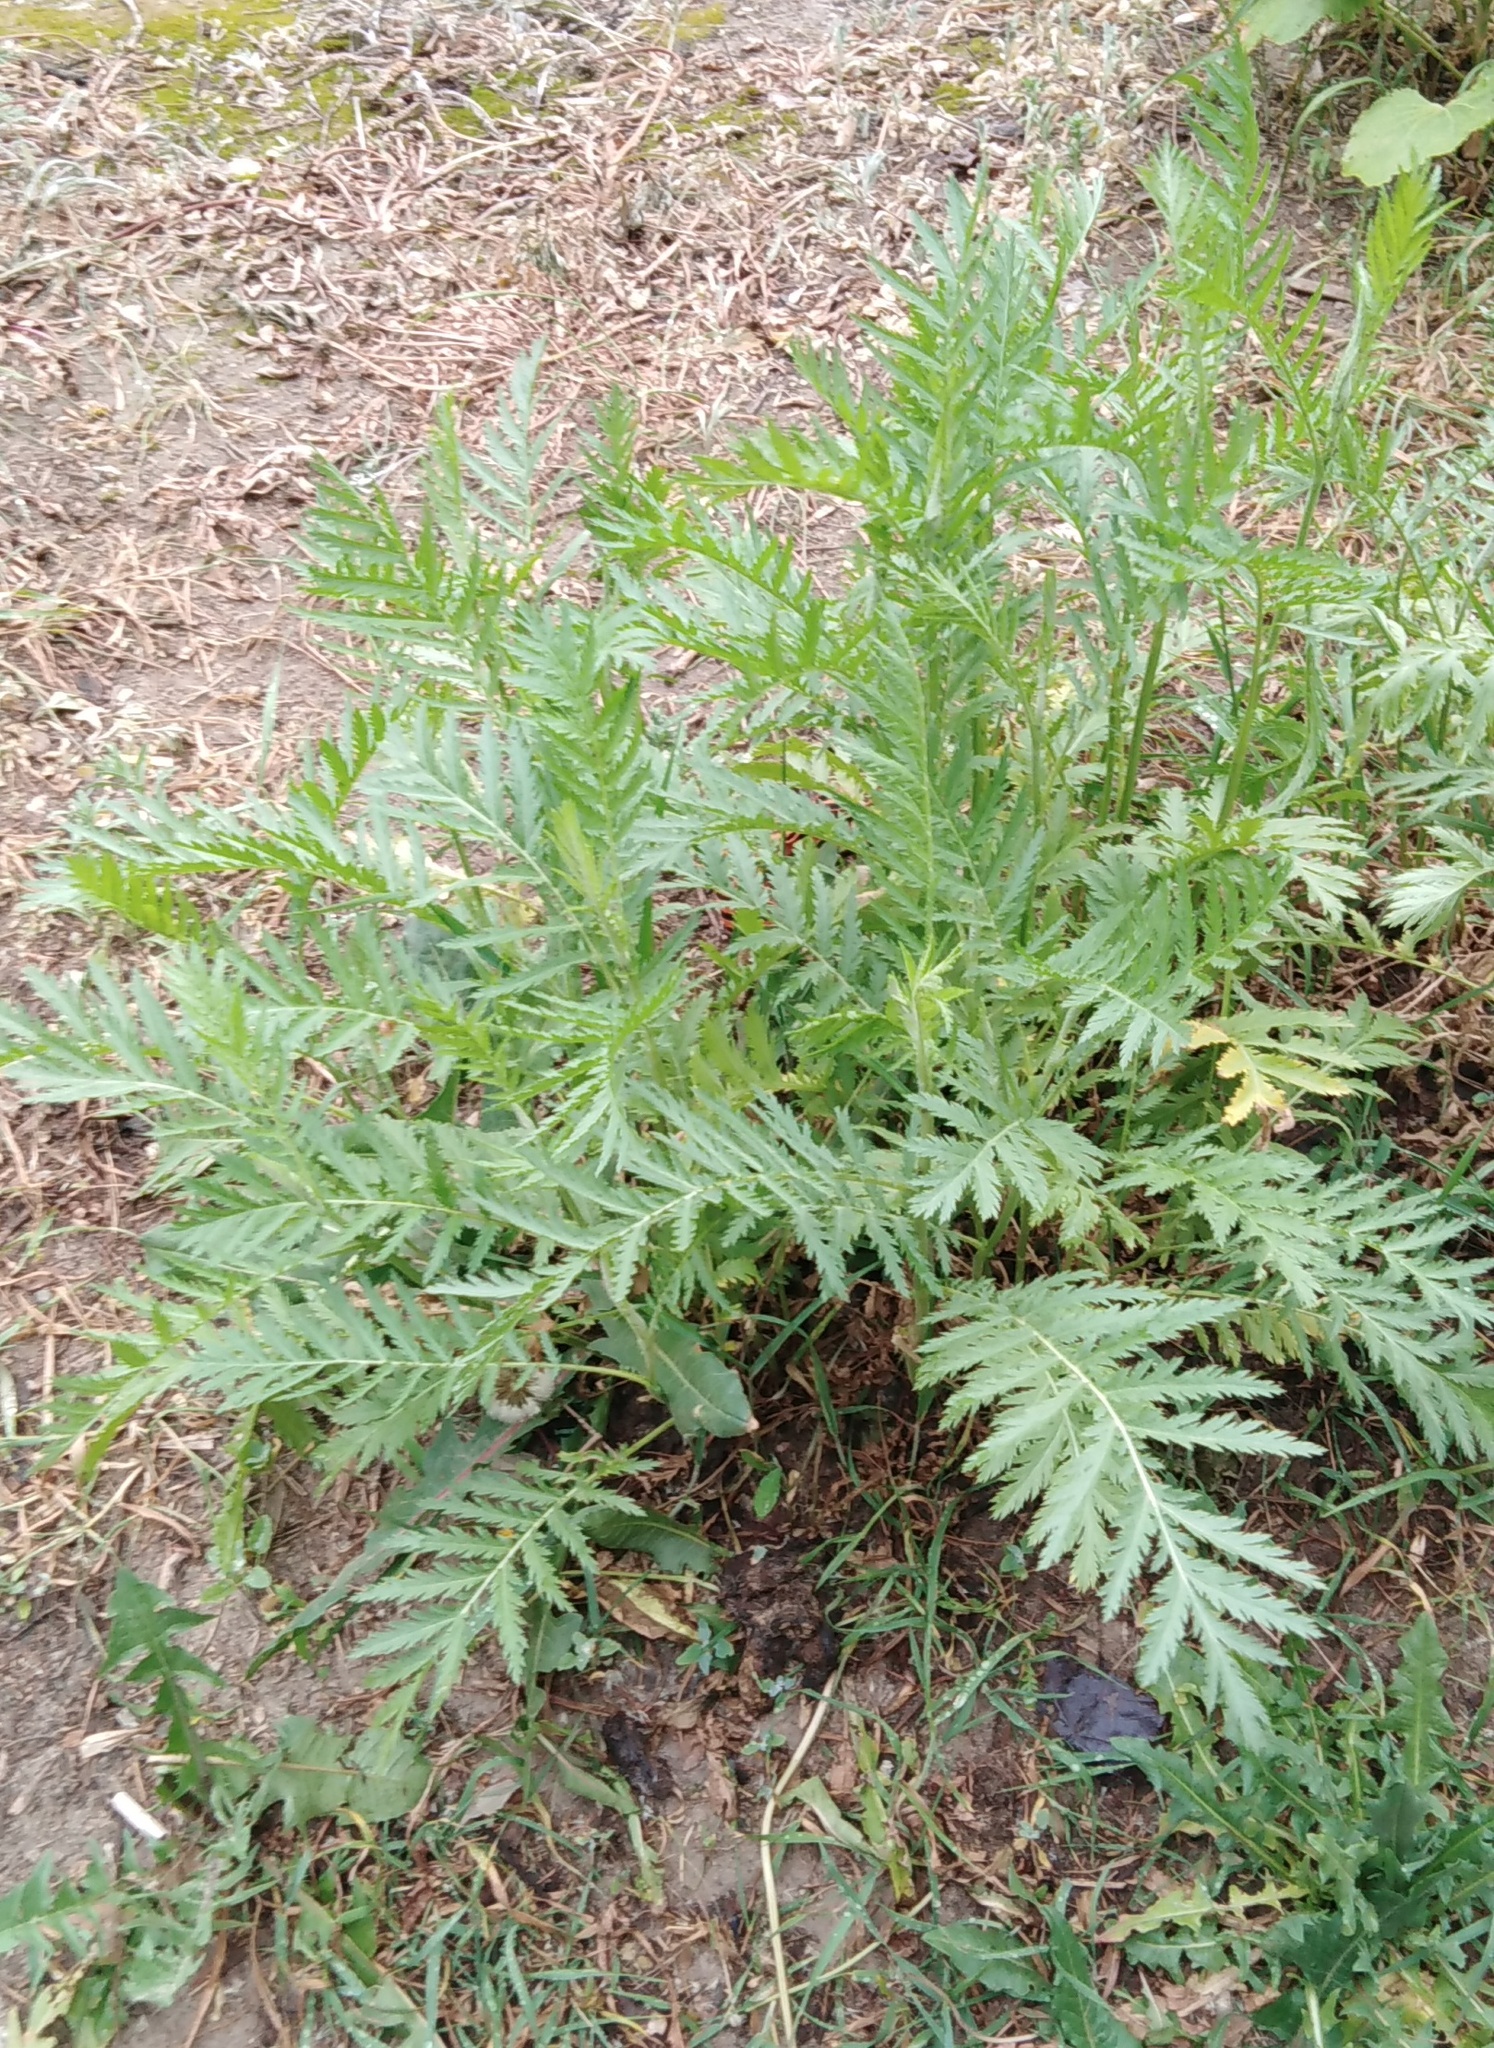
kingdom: Plantae
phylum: Tracheophyta
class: Magnoliopsida
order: Asterales
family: Asteraceae
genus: Tanacetum
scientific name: Tanacetum vulgare
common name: Common tansy
